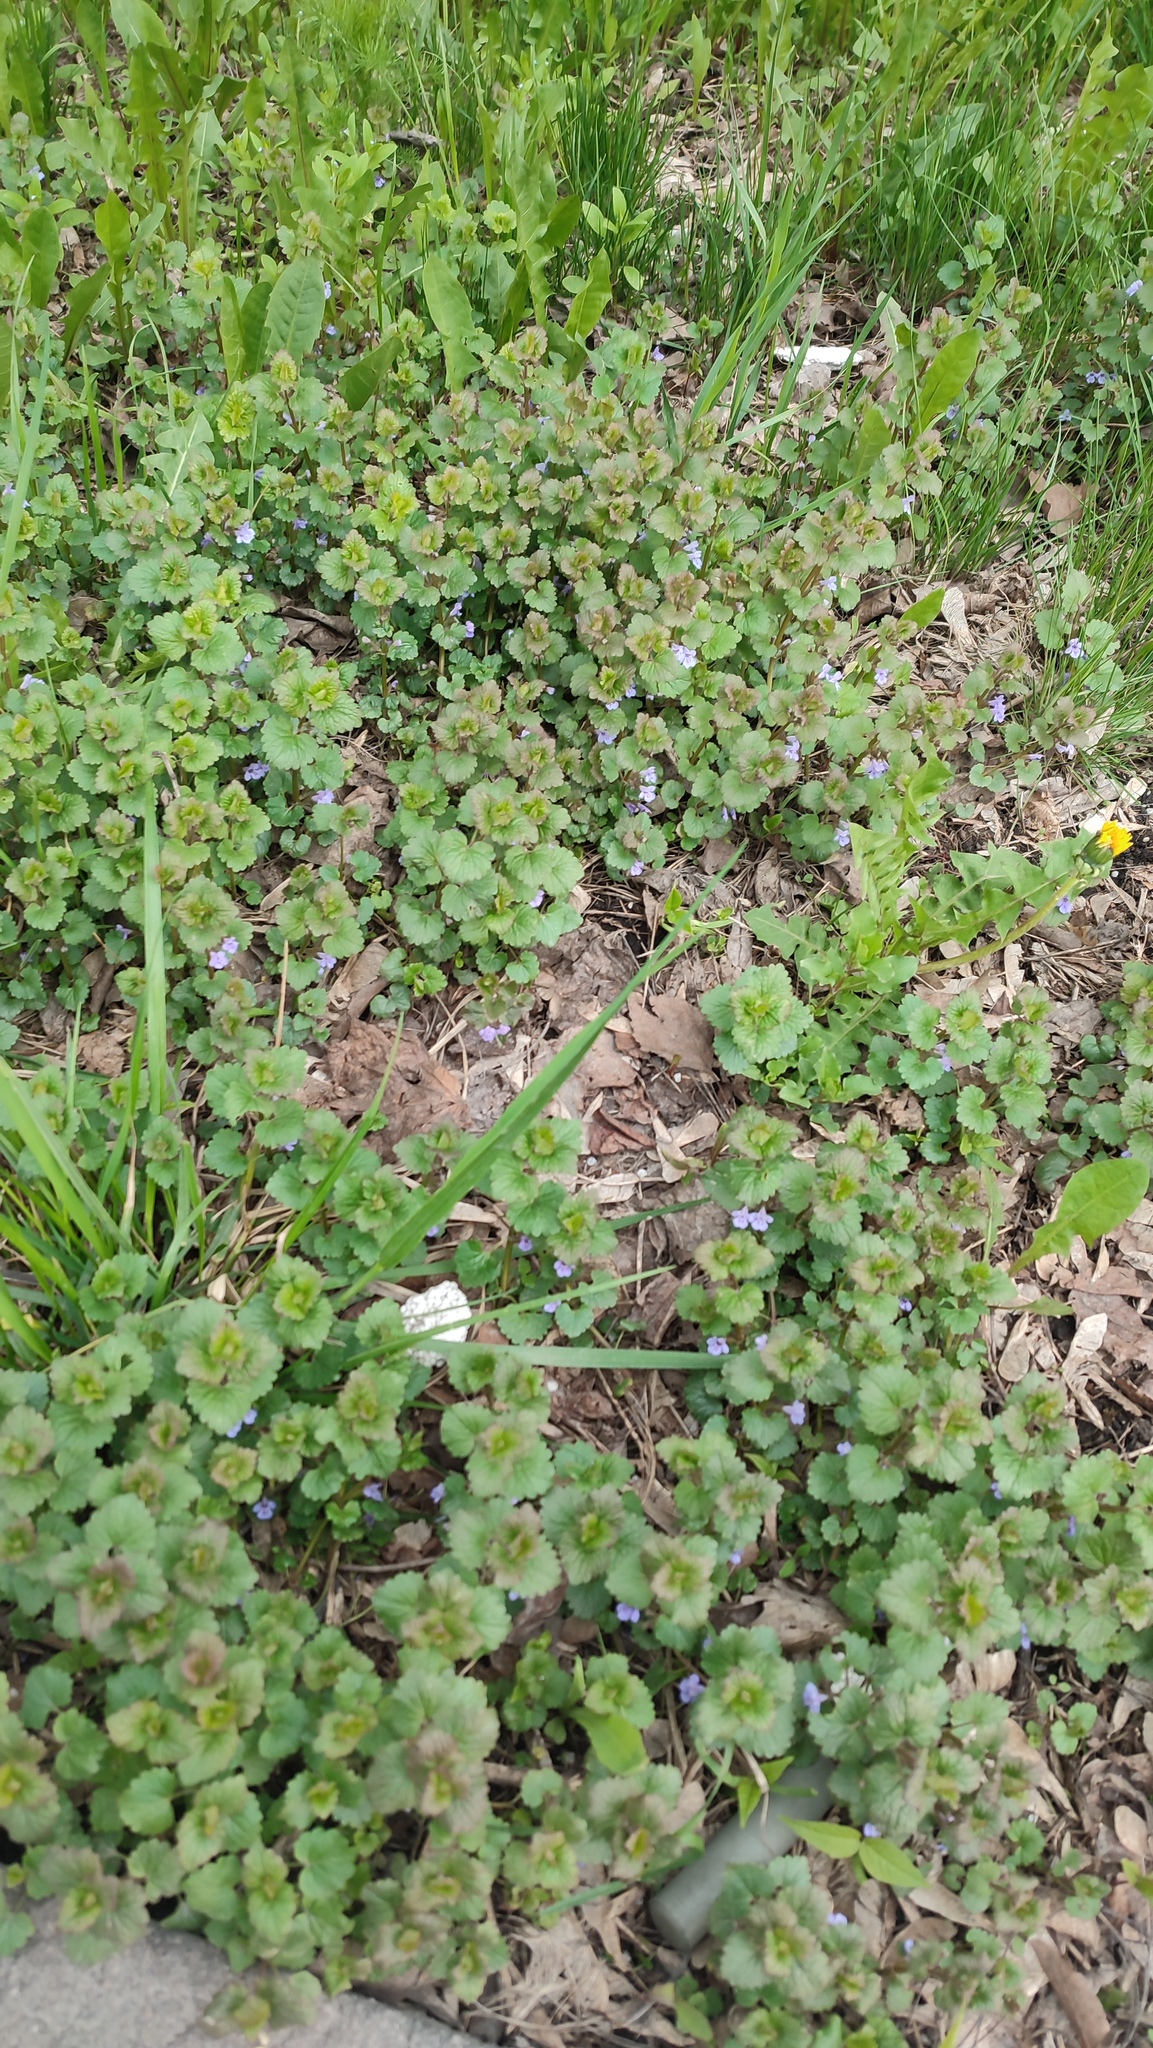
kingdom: Plantae
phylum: Tracheophyta
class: Magnoliopsida
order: Lamiales
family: Lamiaceae
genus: Glechoma
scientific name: Glechoma hederacea
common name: Ground ivy
